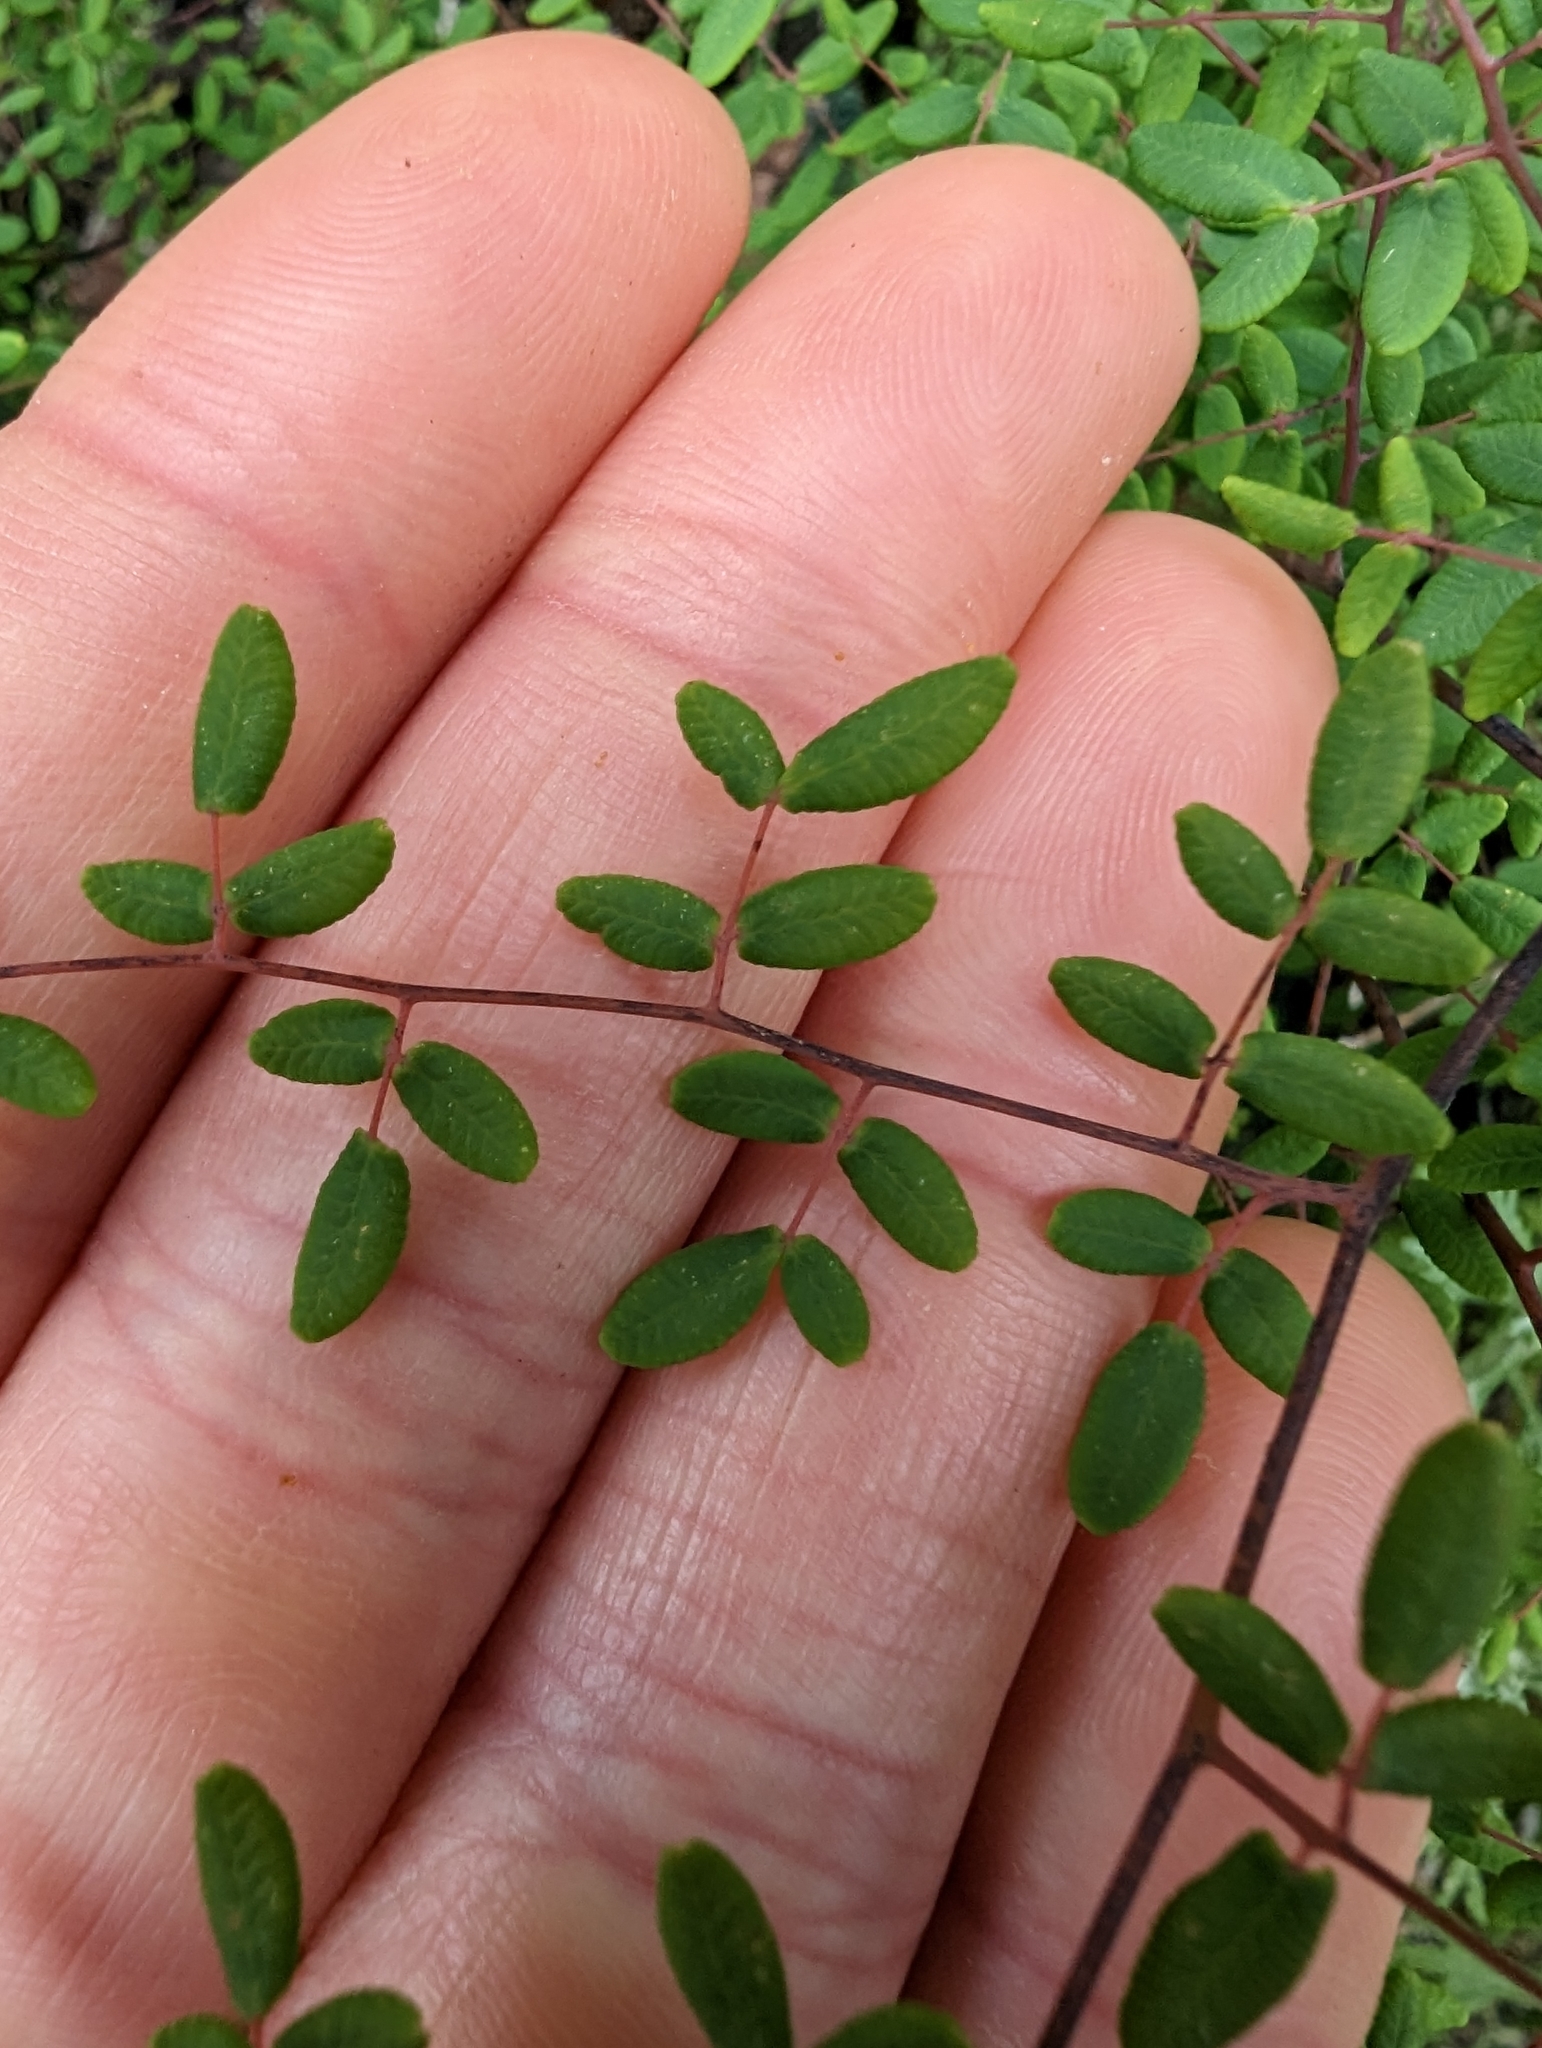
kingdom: Plantae
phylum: Tracheophyta
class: Polypodiopsida
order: Polypodiales
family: Pteridaceae
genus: Pellaea
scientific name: Pellaea andromedifolia
